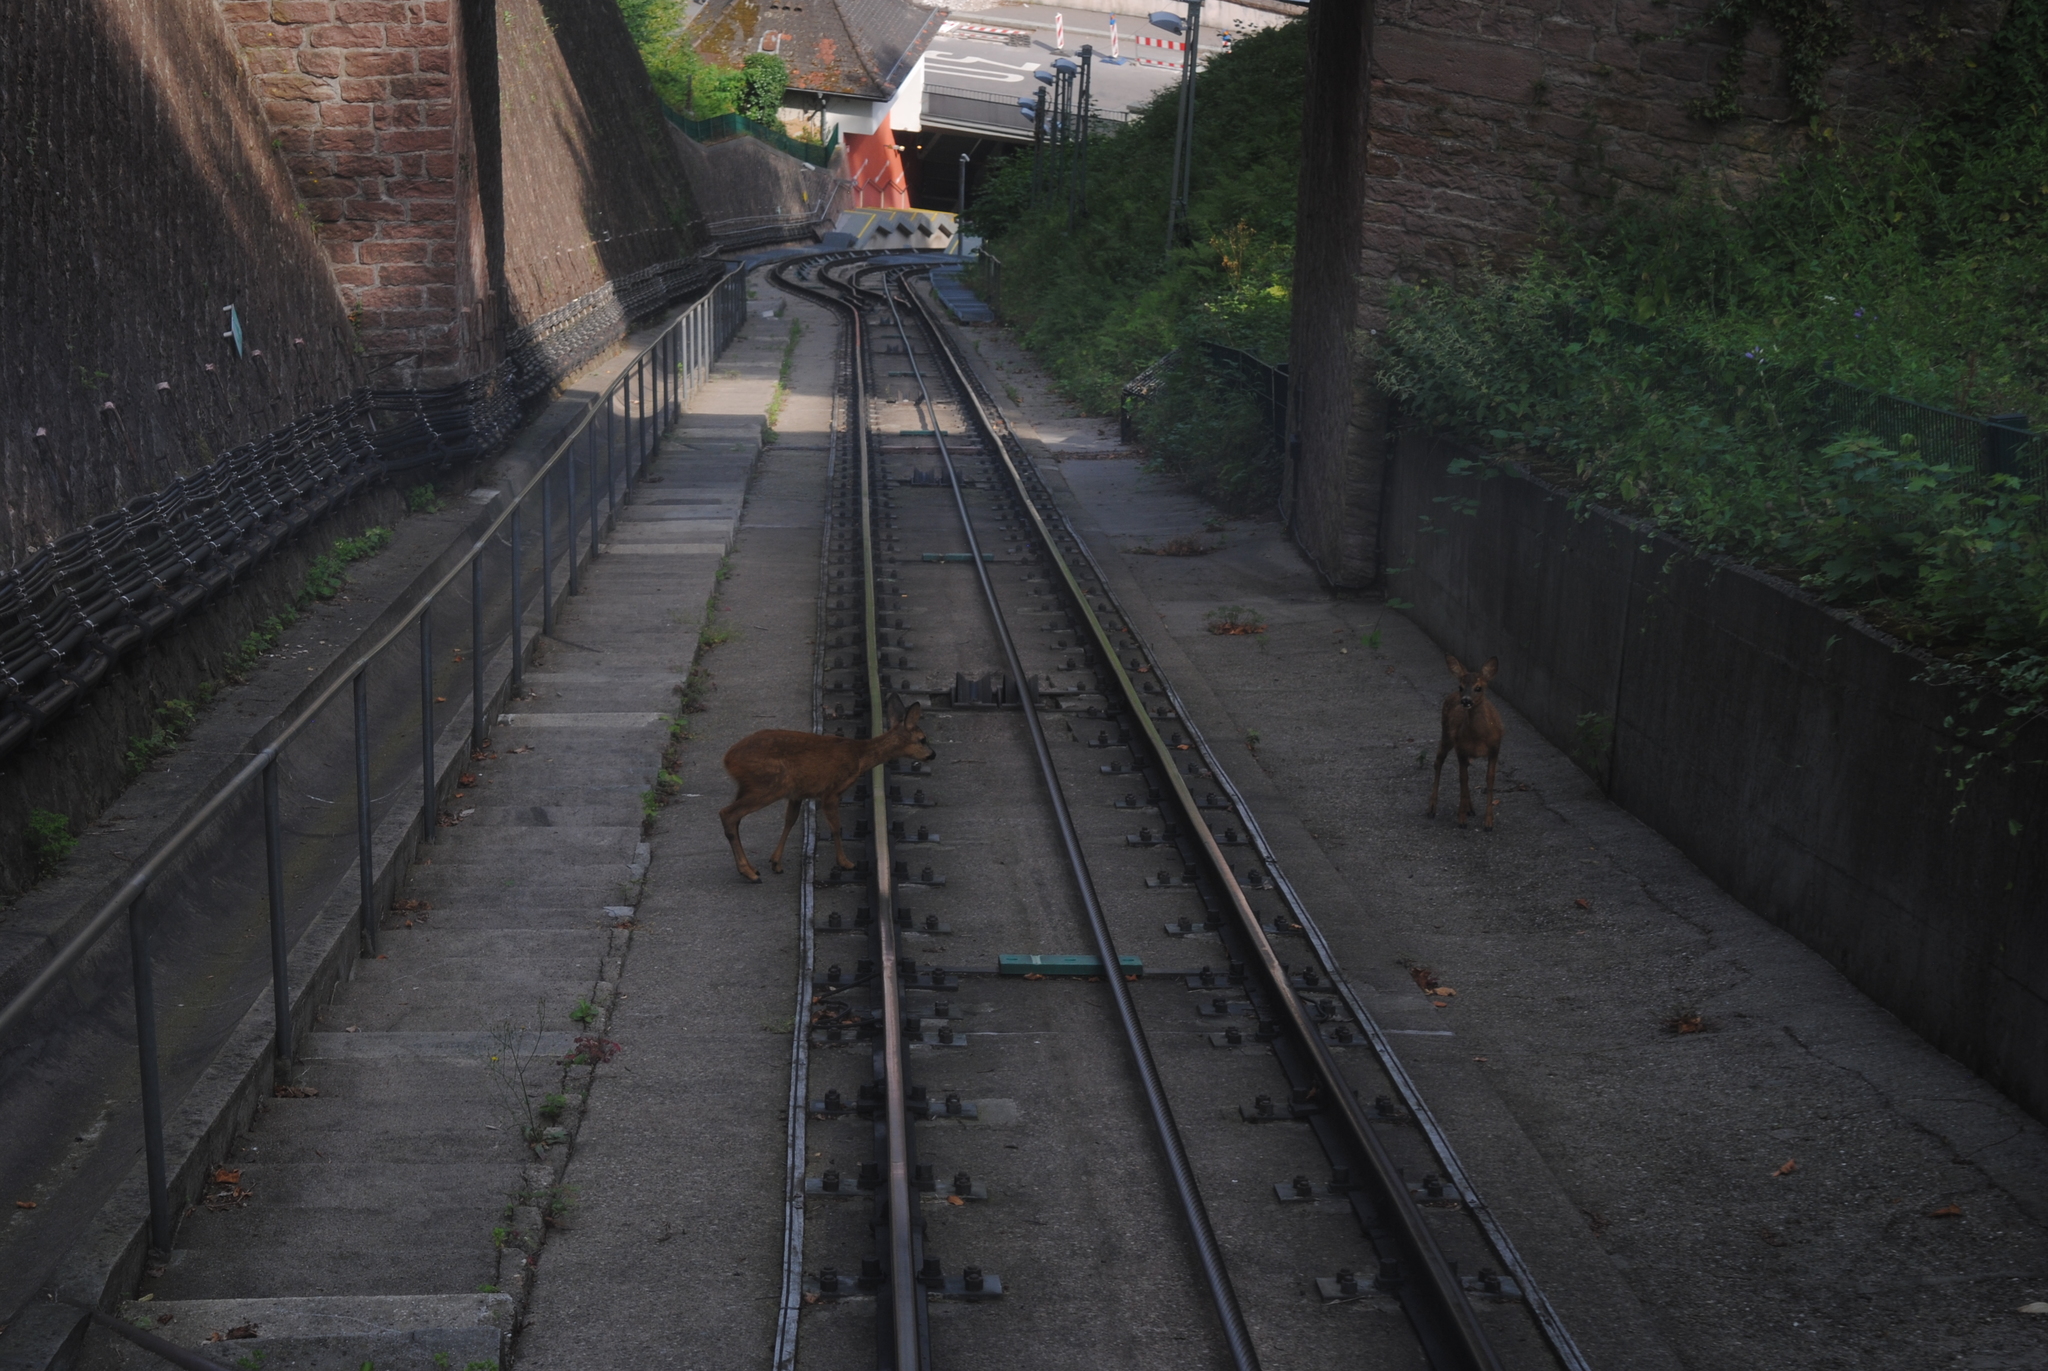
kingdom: Animalia
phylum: Chordata
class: Mammalia
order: Artiodactyla
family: Cervidae
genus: Capreolus
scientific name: Capreolus capreolus
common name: Western roe deer
